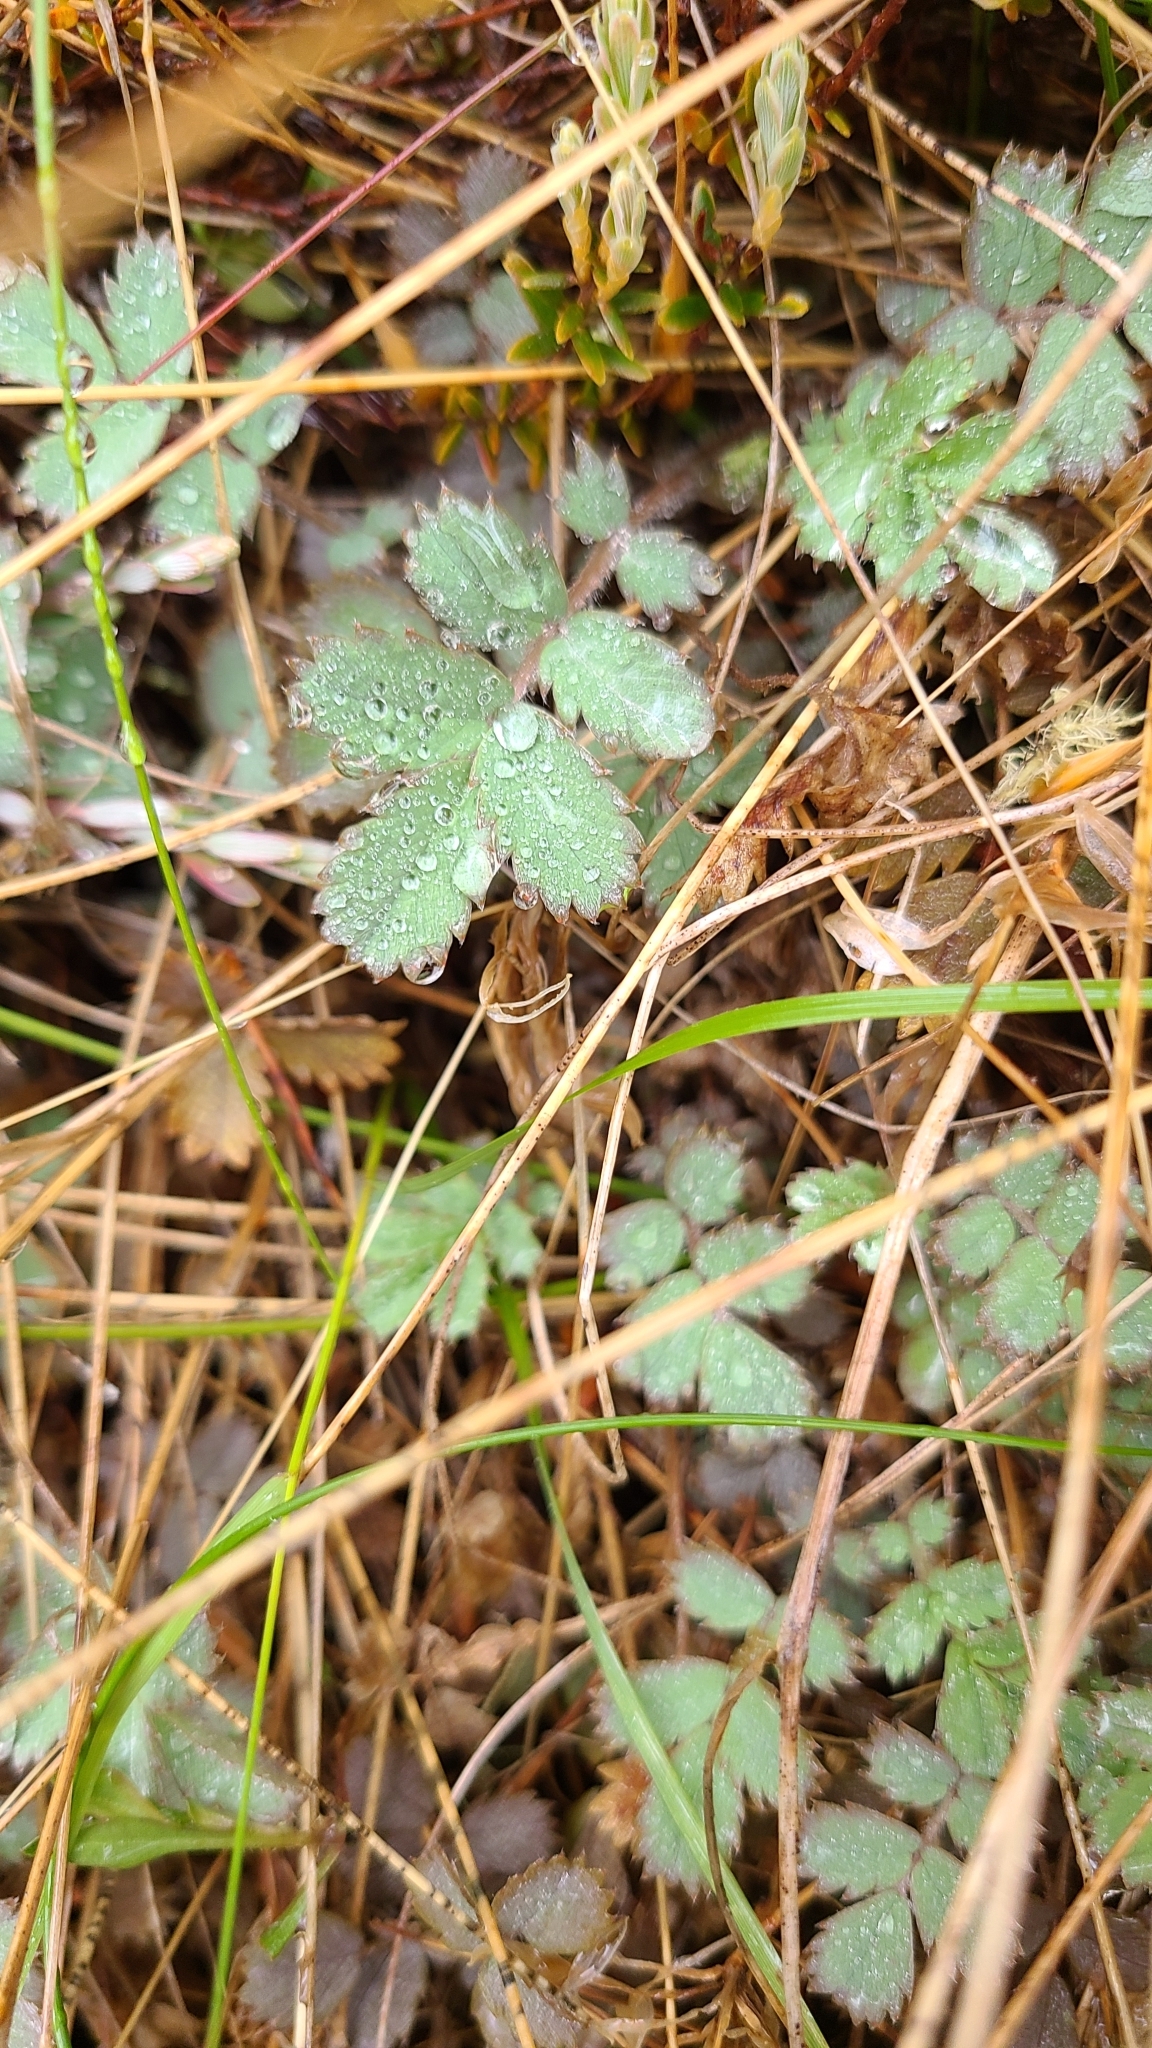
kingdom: Plantae
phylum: Tracheophyta
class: Magnoliopsida
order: Rosales
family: Rosaceae
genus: Acaena
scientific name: Acaena caesiiglauca
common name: Glaucous pirri-pirri-bur
